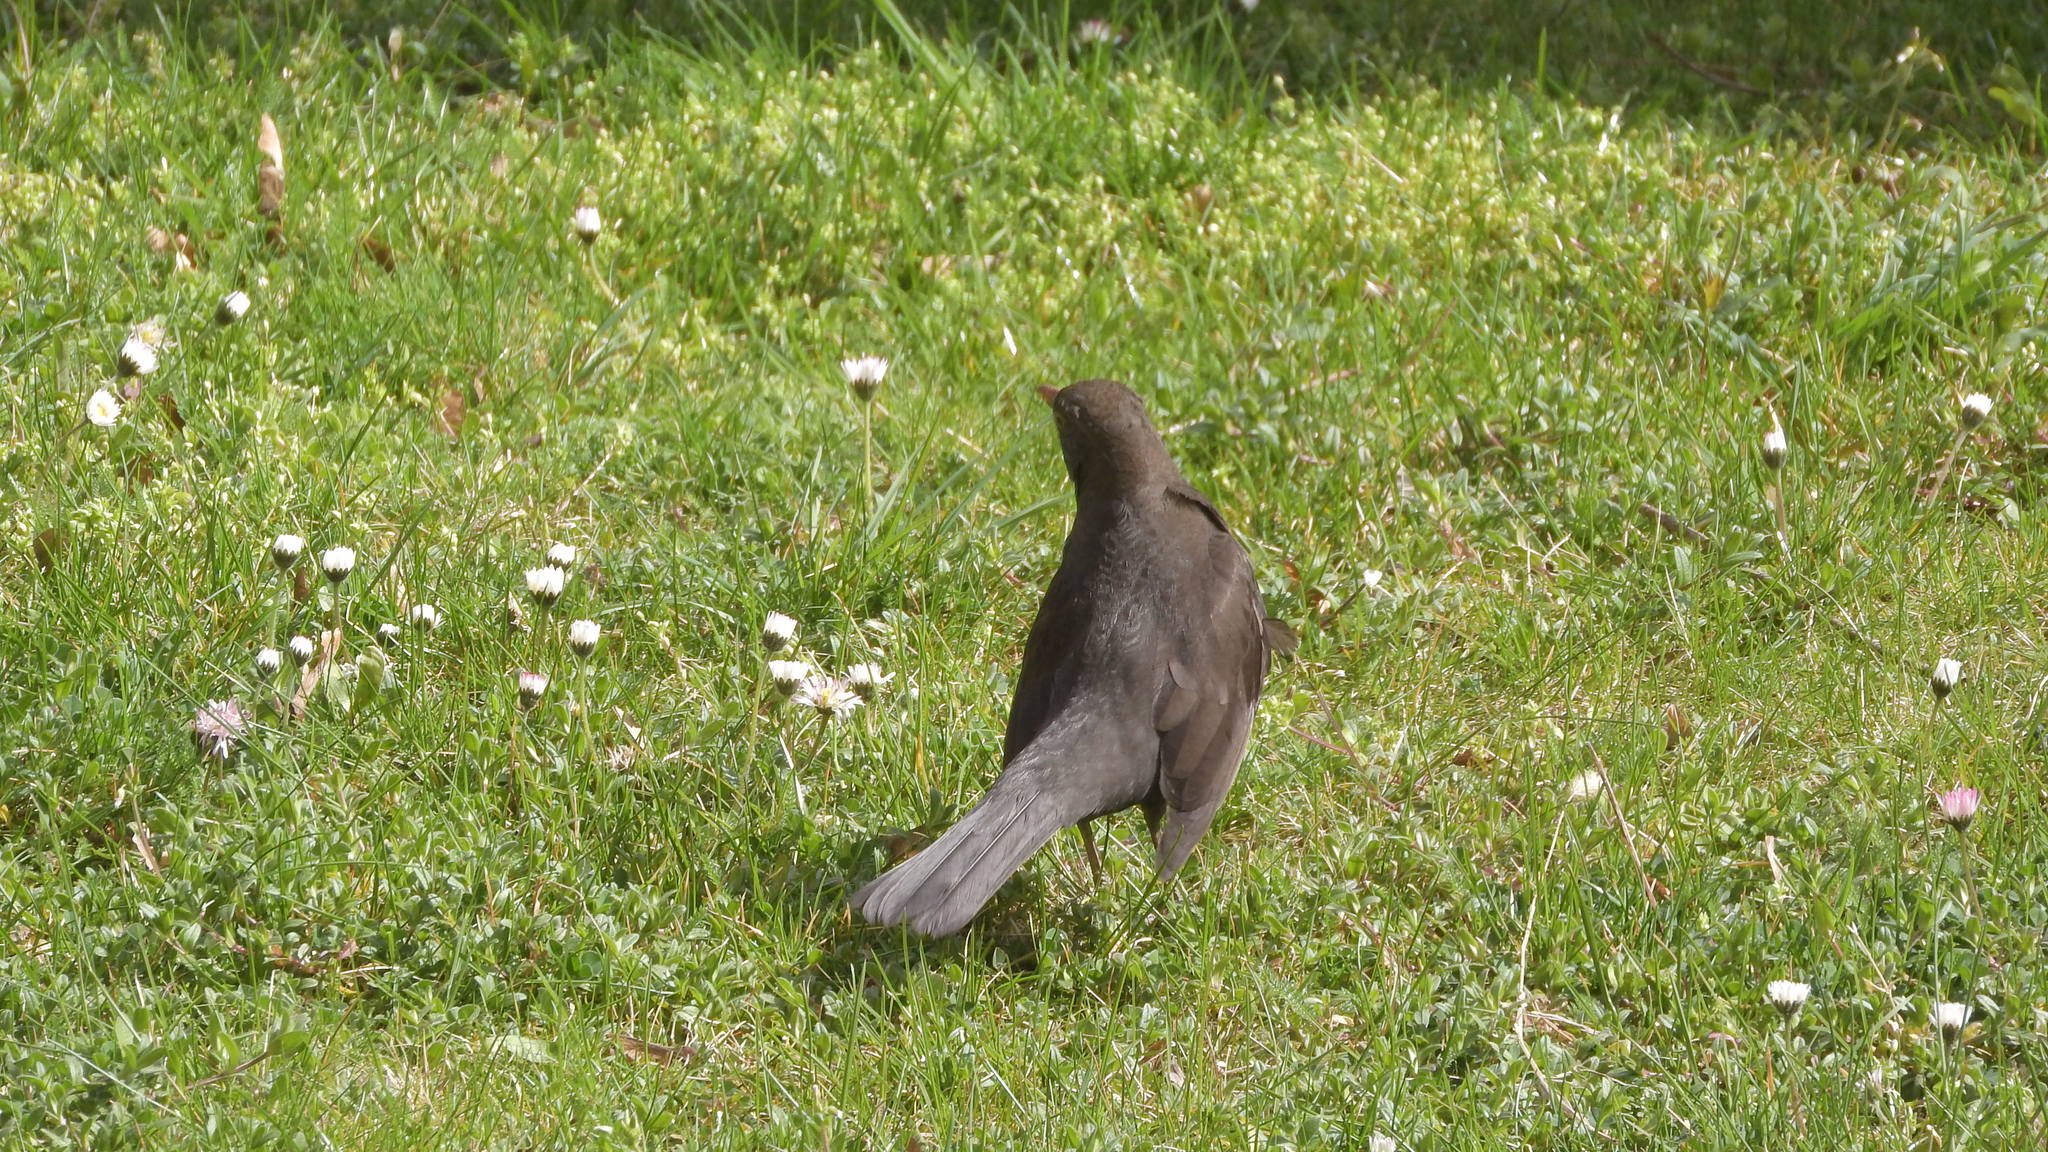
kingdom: Animalia
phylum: Chordata
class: Aves
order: Passeriformes
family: Turdidae
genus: Turdus
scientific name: Turdus merula
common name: Common blackbird
